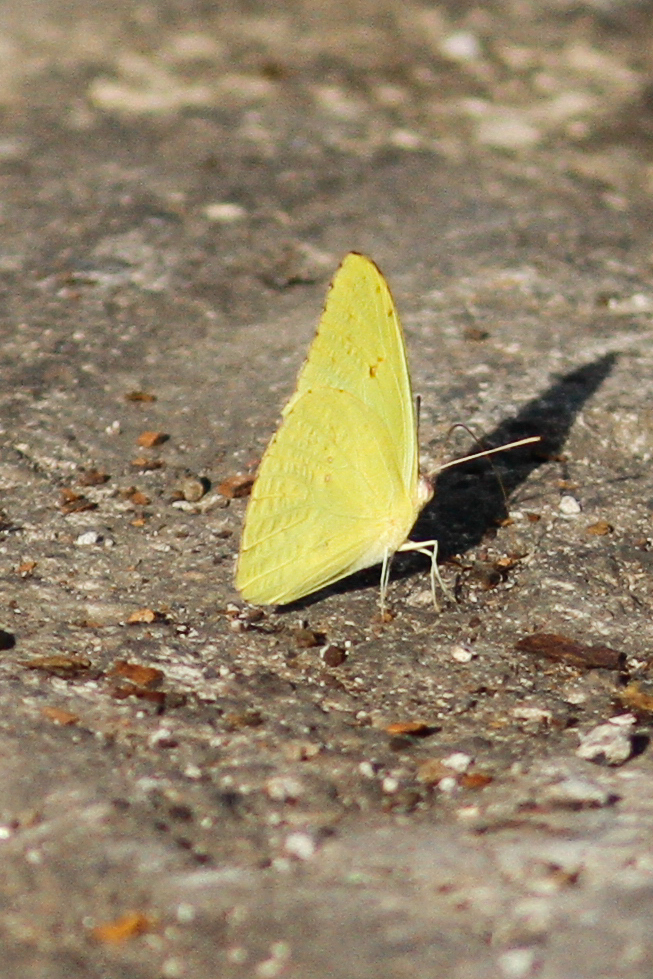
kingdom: Animalia
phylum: Arthropoda
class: Insecta
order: Lepidoptera
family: Pieridae
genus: Phoebis
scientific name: Phoebis sennae
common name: Cloudless sulphur
